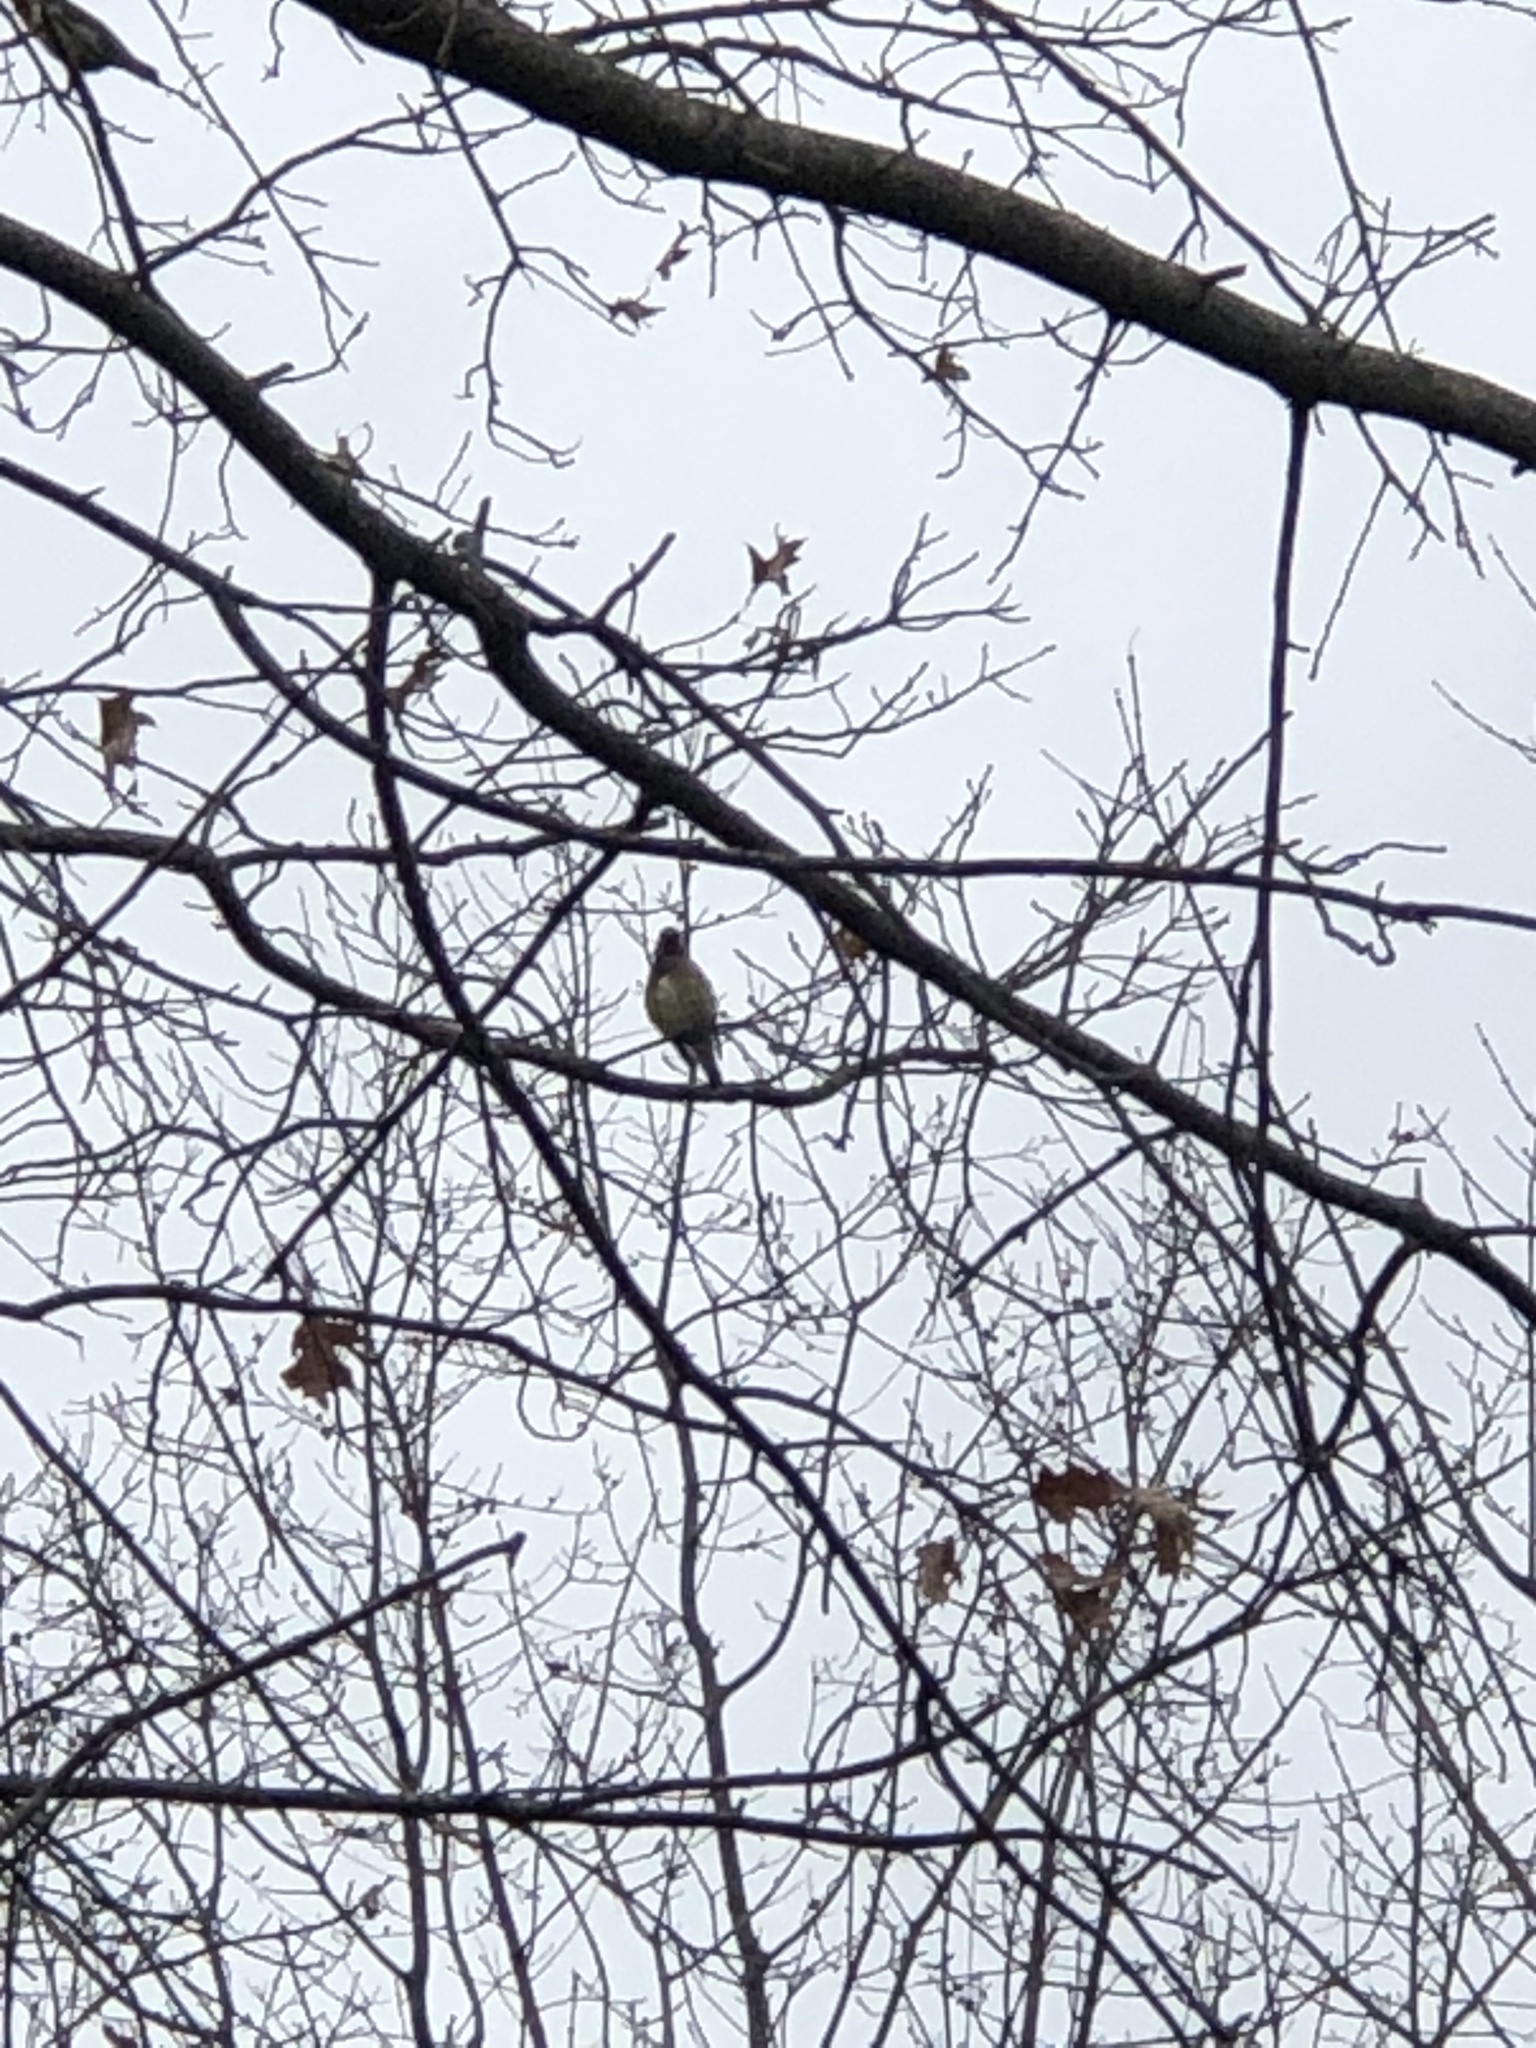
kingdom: Animalia
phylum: Chordata
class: Aves
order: Passeriformes
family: Bombycillidae
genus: Bombycilla
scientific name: Bombycilla cedrorum
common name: Cedar waxwing
